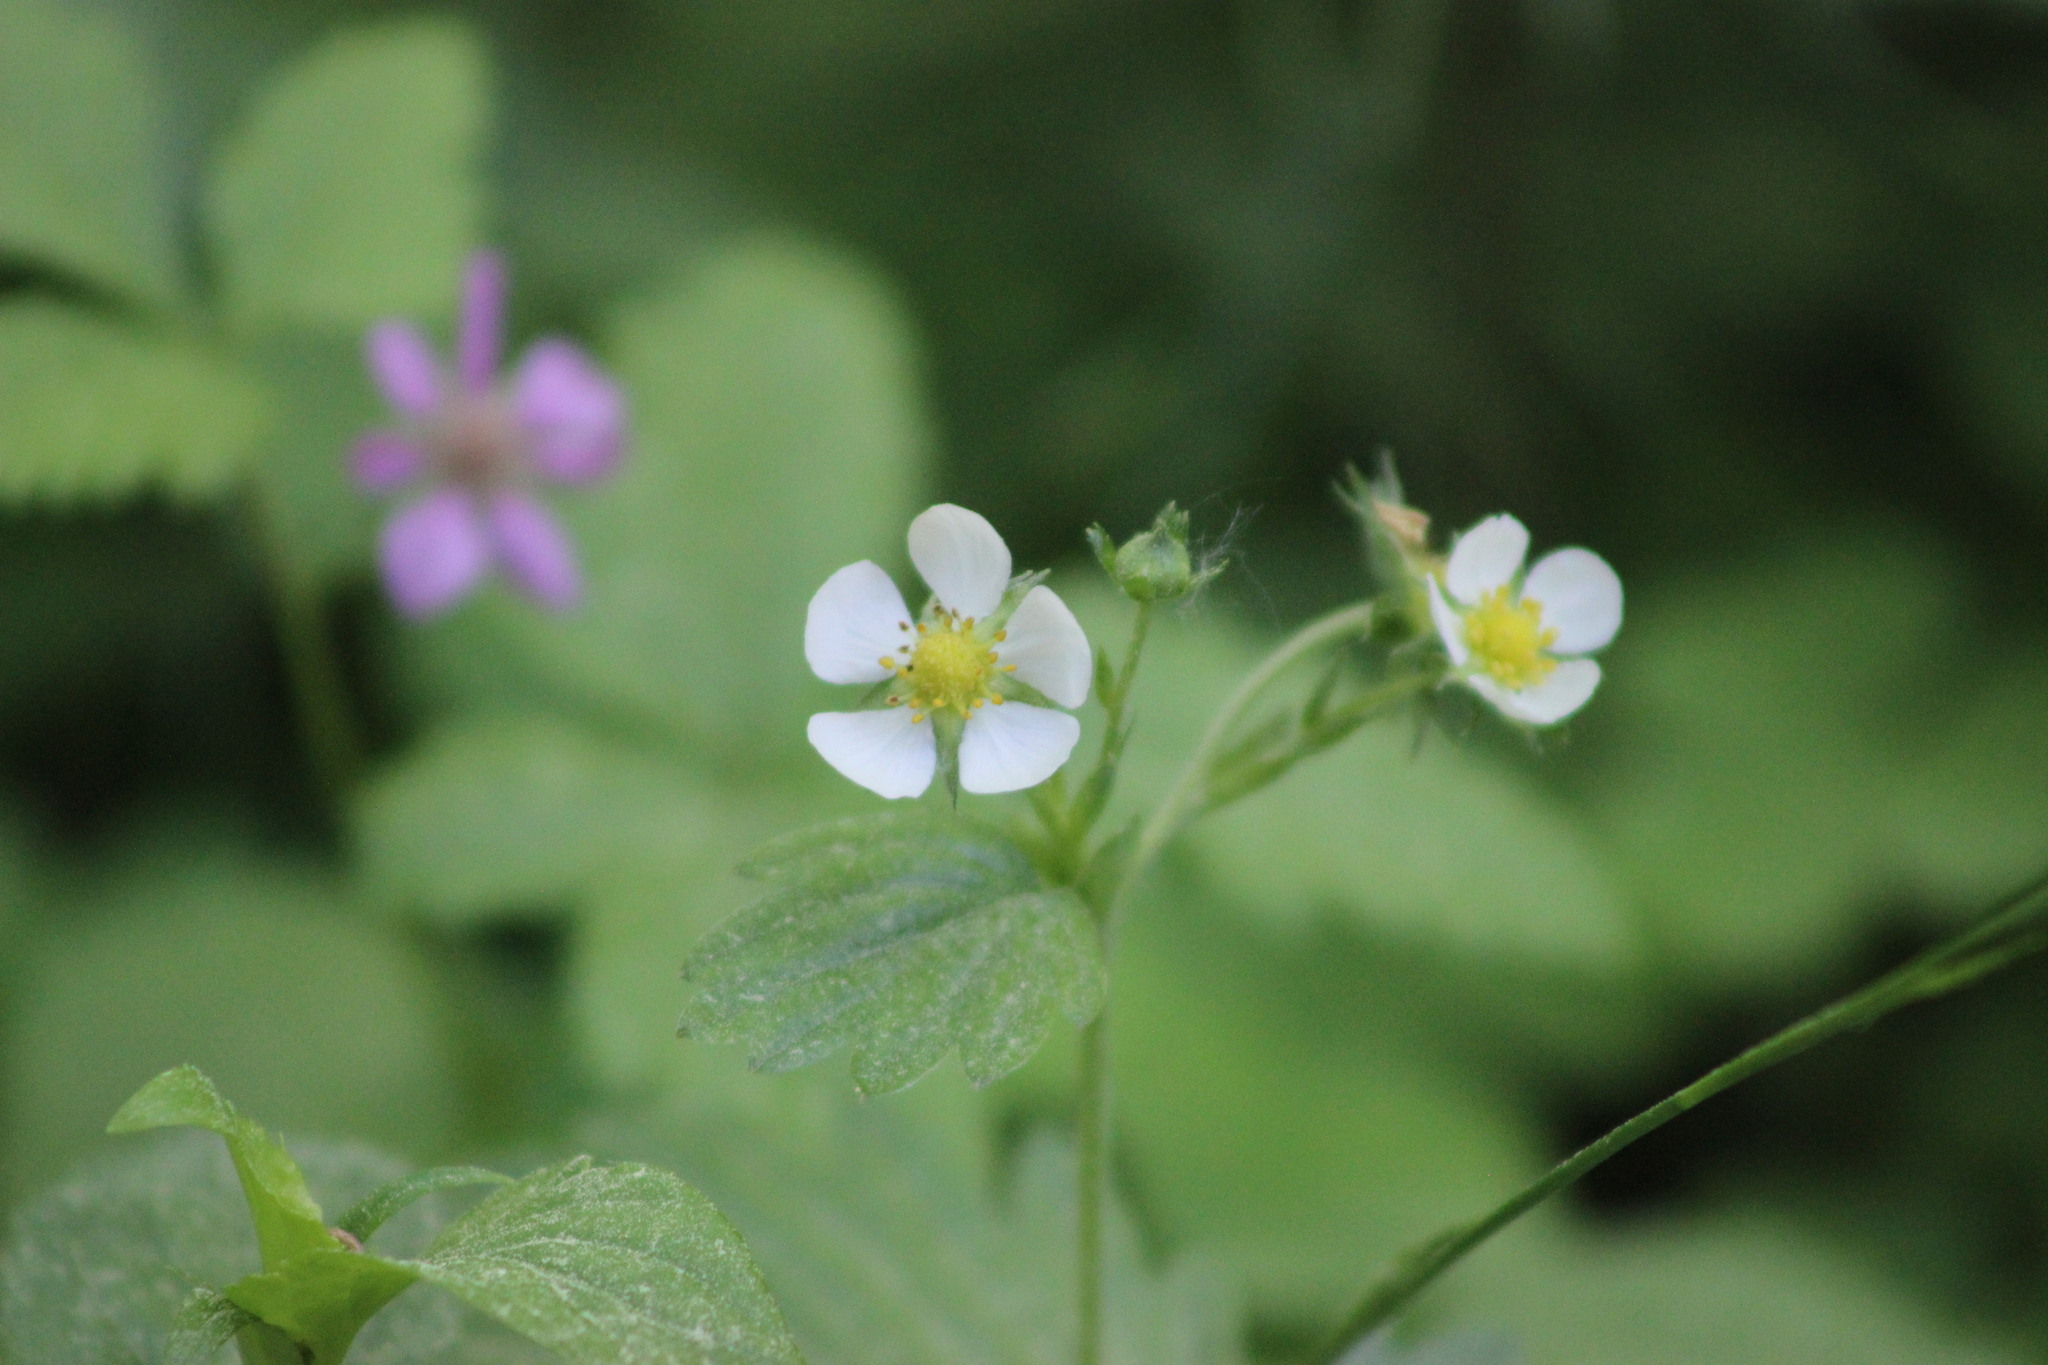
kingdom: Plantae
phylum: Tracheophyta
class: Magnoliopsida
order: Rosales
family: Rosaceae
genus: Fragaria
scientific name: Fragaria vesca
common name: Wild strawberry
